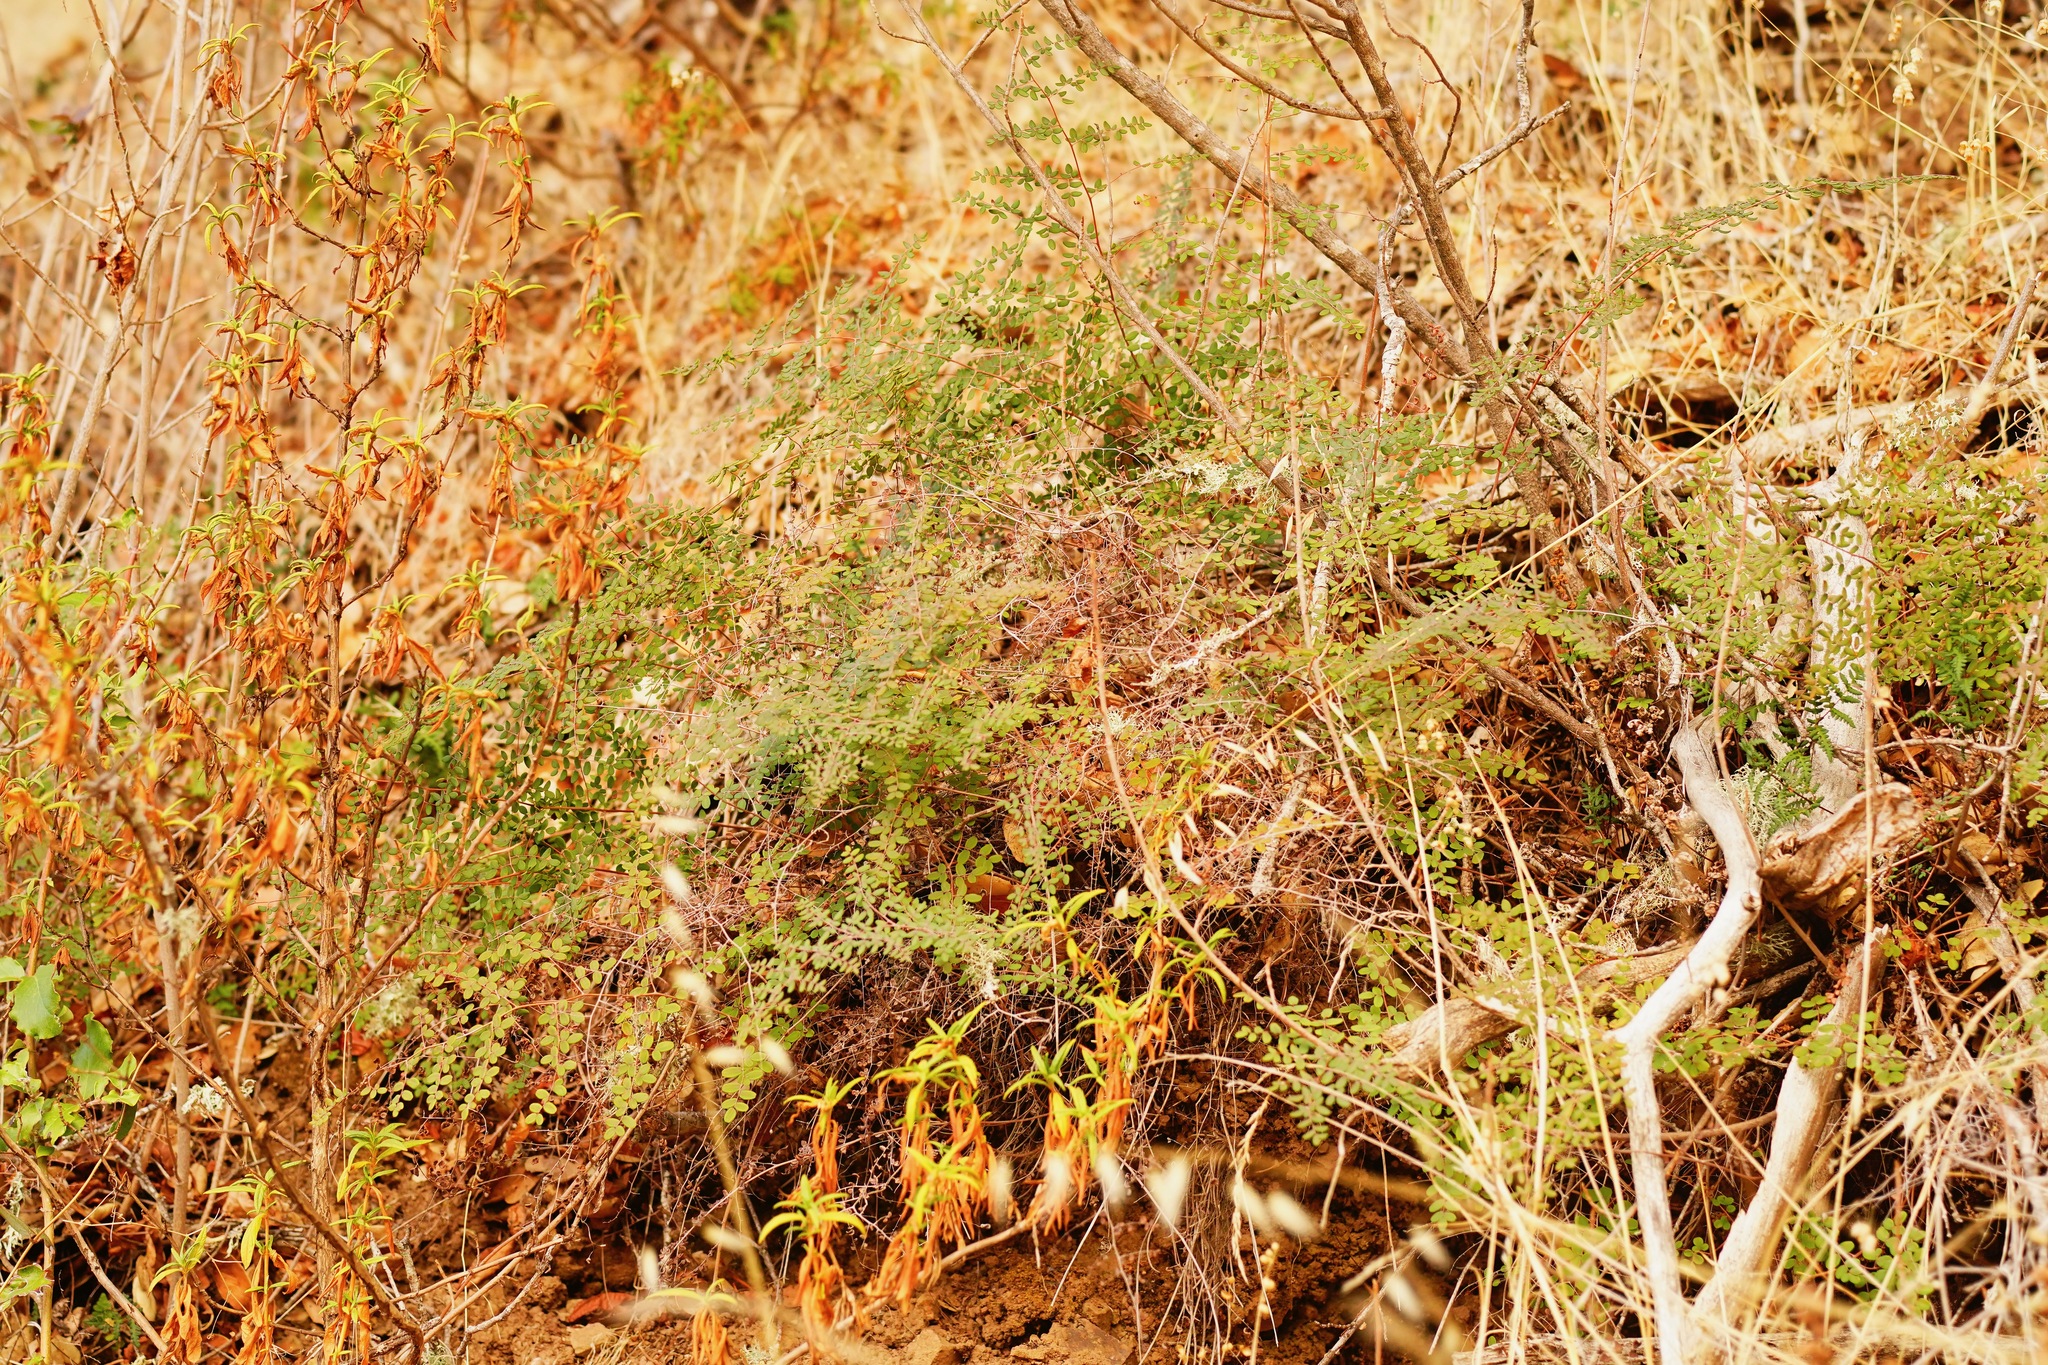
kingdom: Plantae
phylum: Tracheophyta
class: Polypodiopsida
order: Polypodiales
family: Pteridaceae
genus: Pellaea
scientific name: Pellaea andromedifolia
